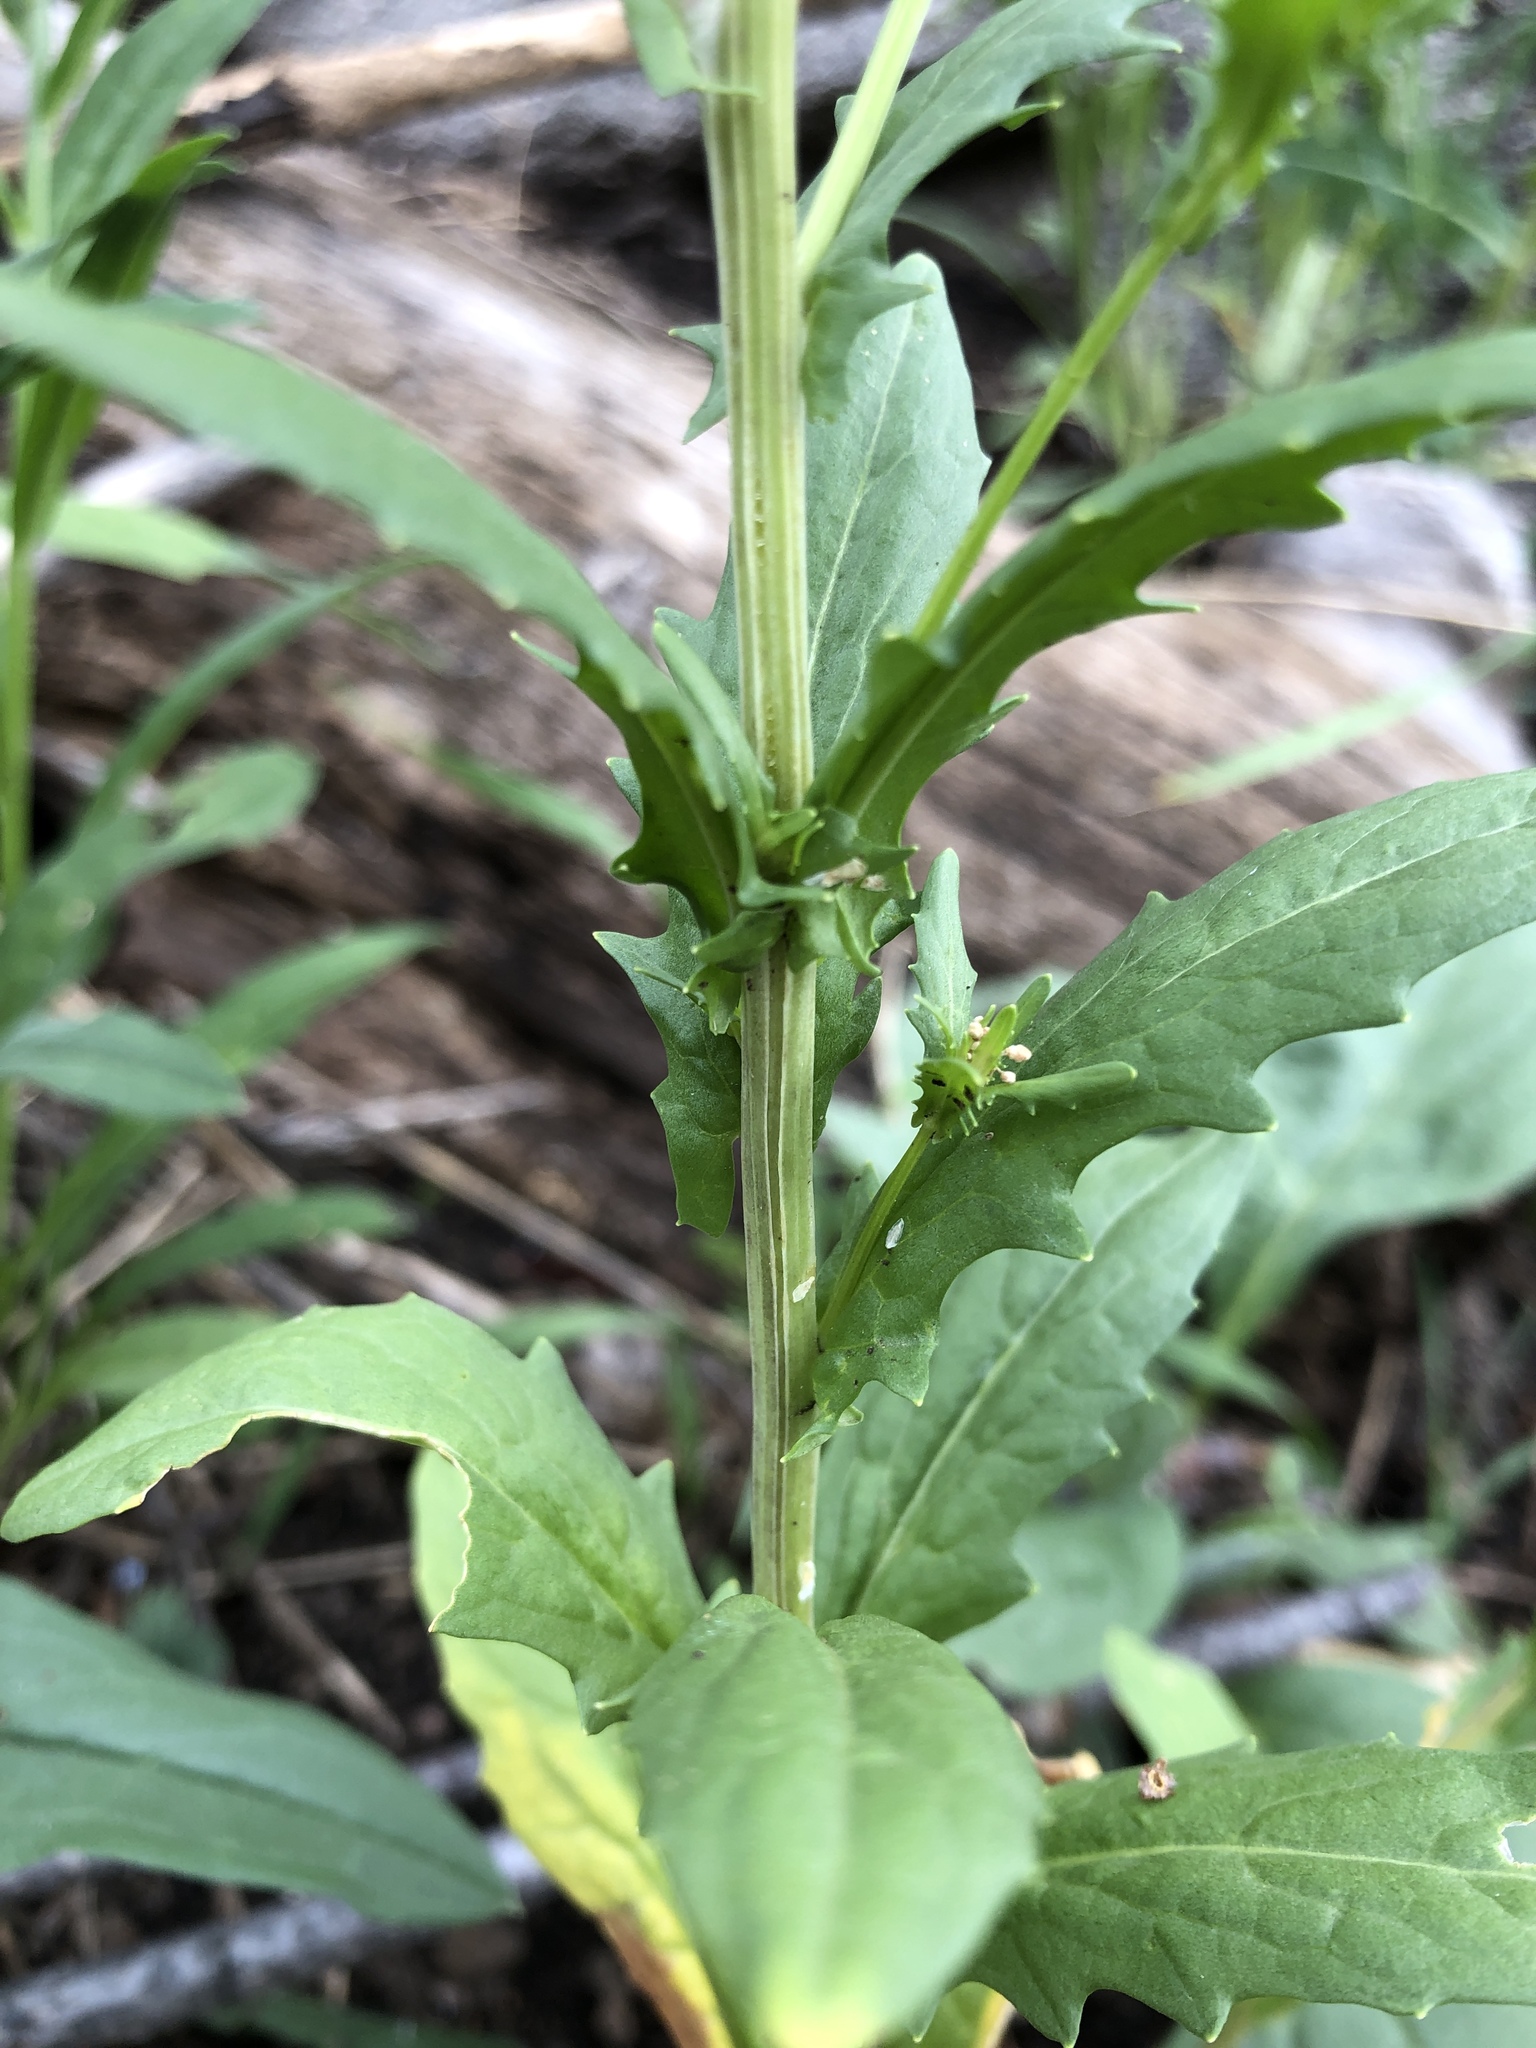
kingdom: Plantae
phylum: Tracheophyta
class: Magnoliopsida
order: Brassicales
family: Brassicaceae
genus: Thlaspi
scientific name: Thlaspi arvense
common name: Field pennycress
